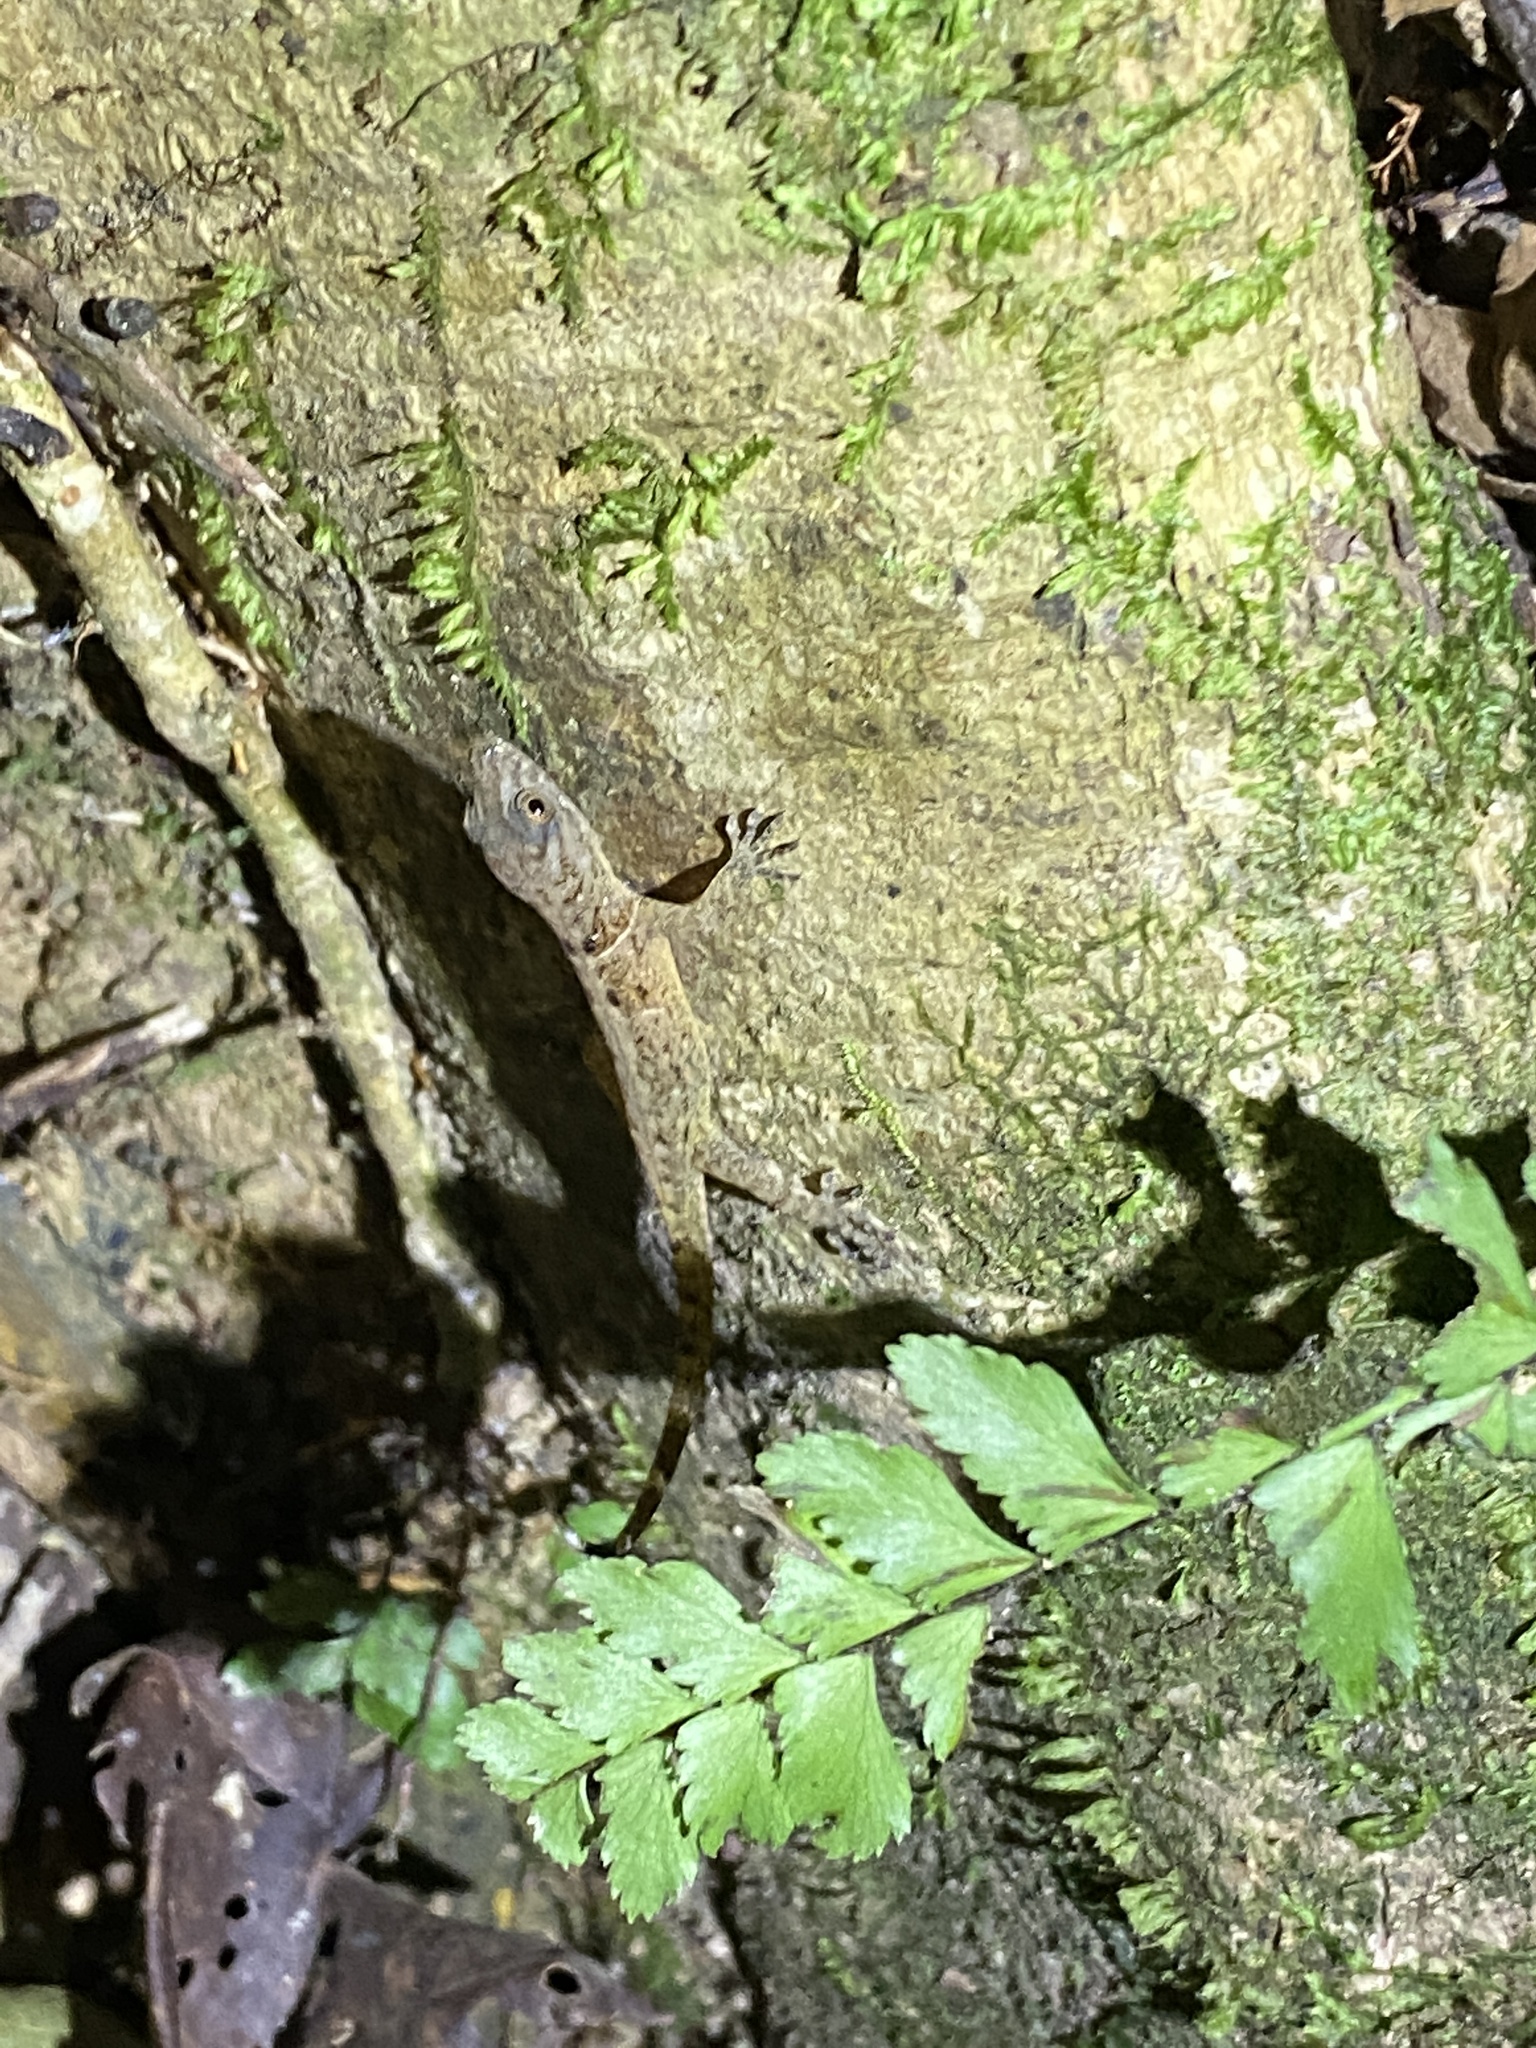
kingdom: Animalia
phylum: Chordata
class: Squamata
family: Sphaerodactylidae
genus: Gonatodes
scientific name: Gonatodes humeralis
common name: South american clawed gecko
